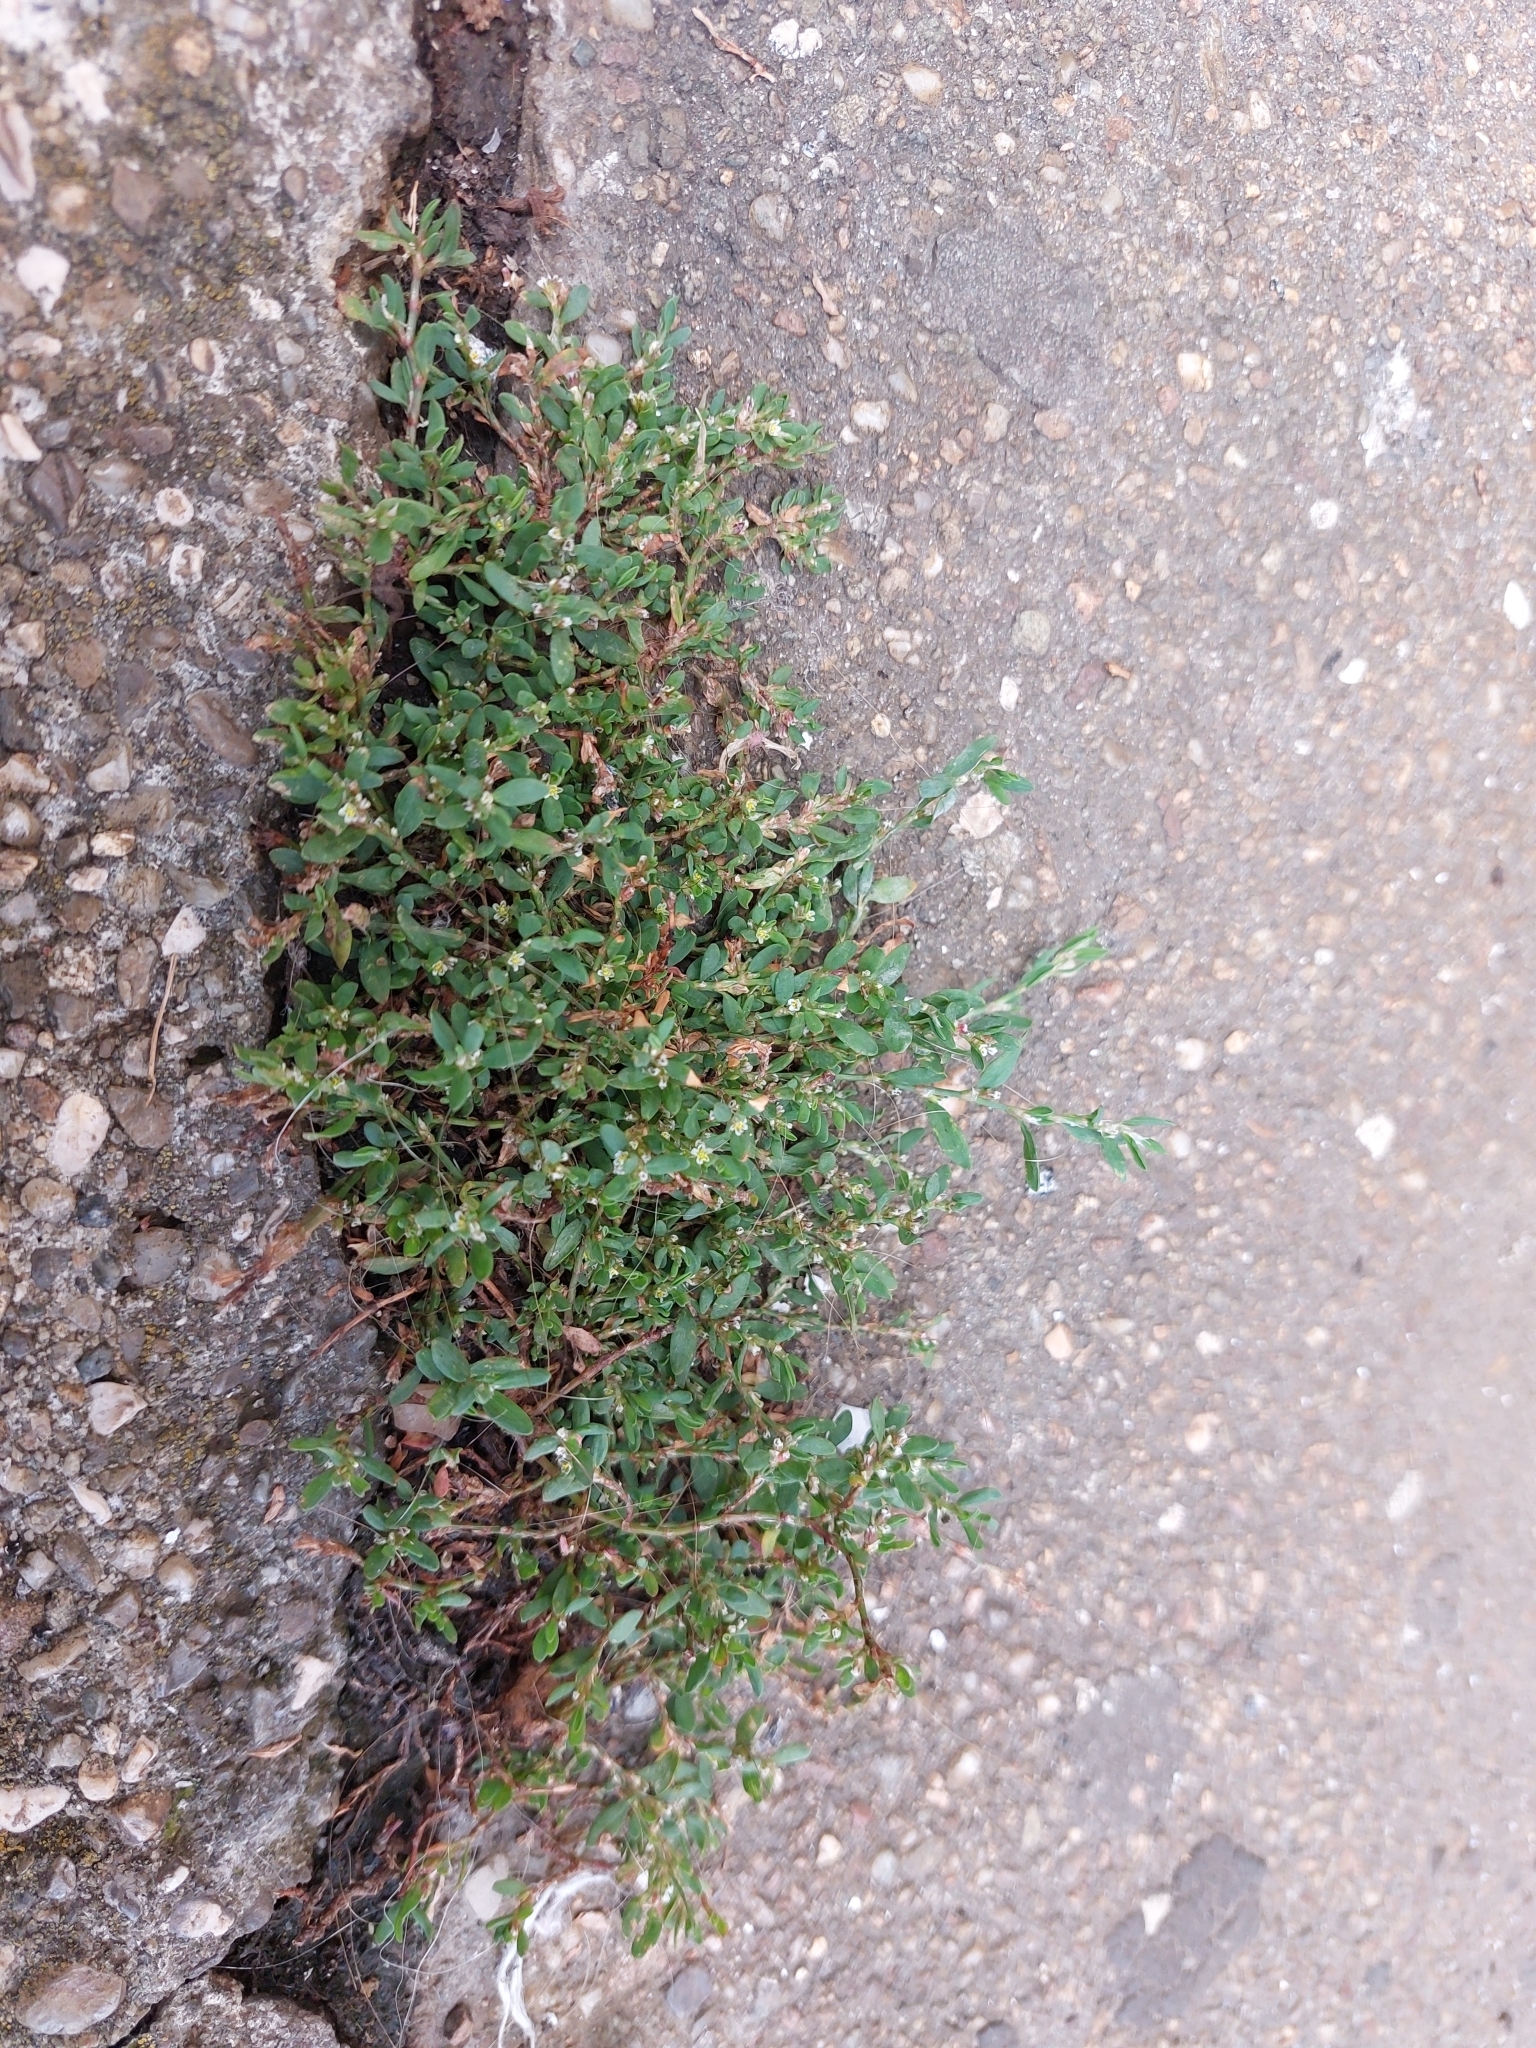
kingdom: Plantae
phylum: Tracheophyta
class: Magnoliopsida
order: Caryophyllales
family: Polygonaceae
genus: Polygonum
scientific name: Polygonum aviculare
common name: Prostrate knotweed
